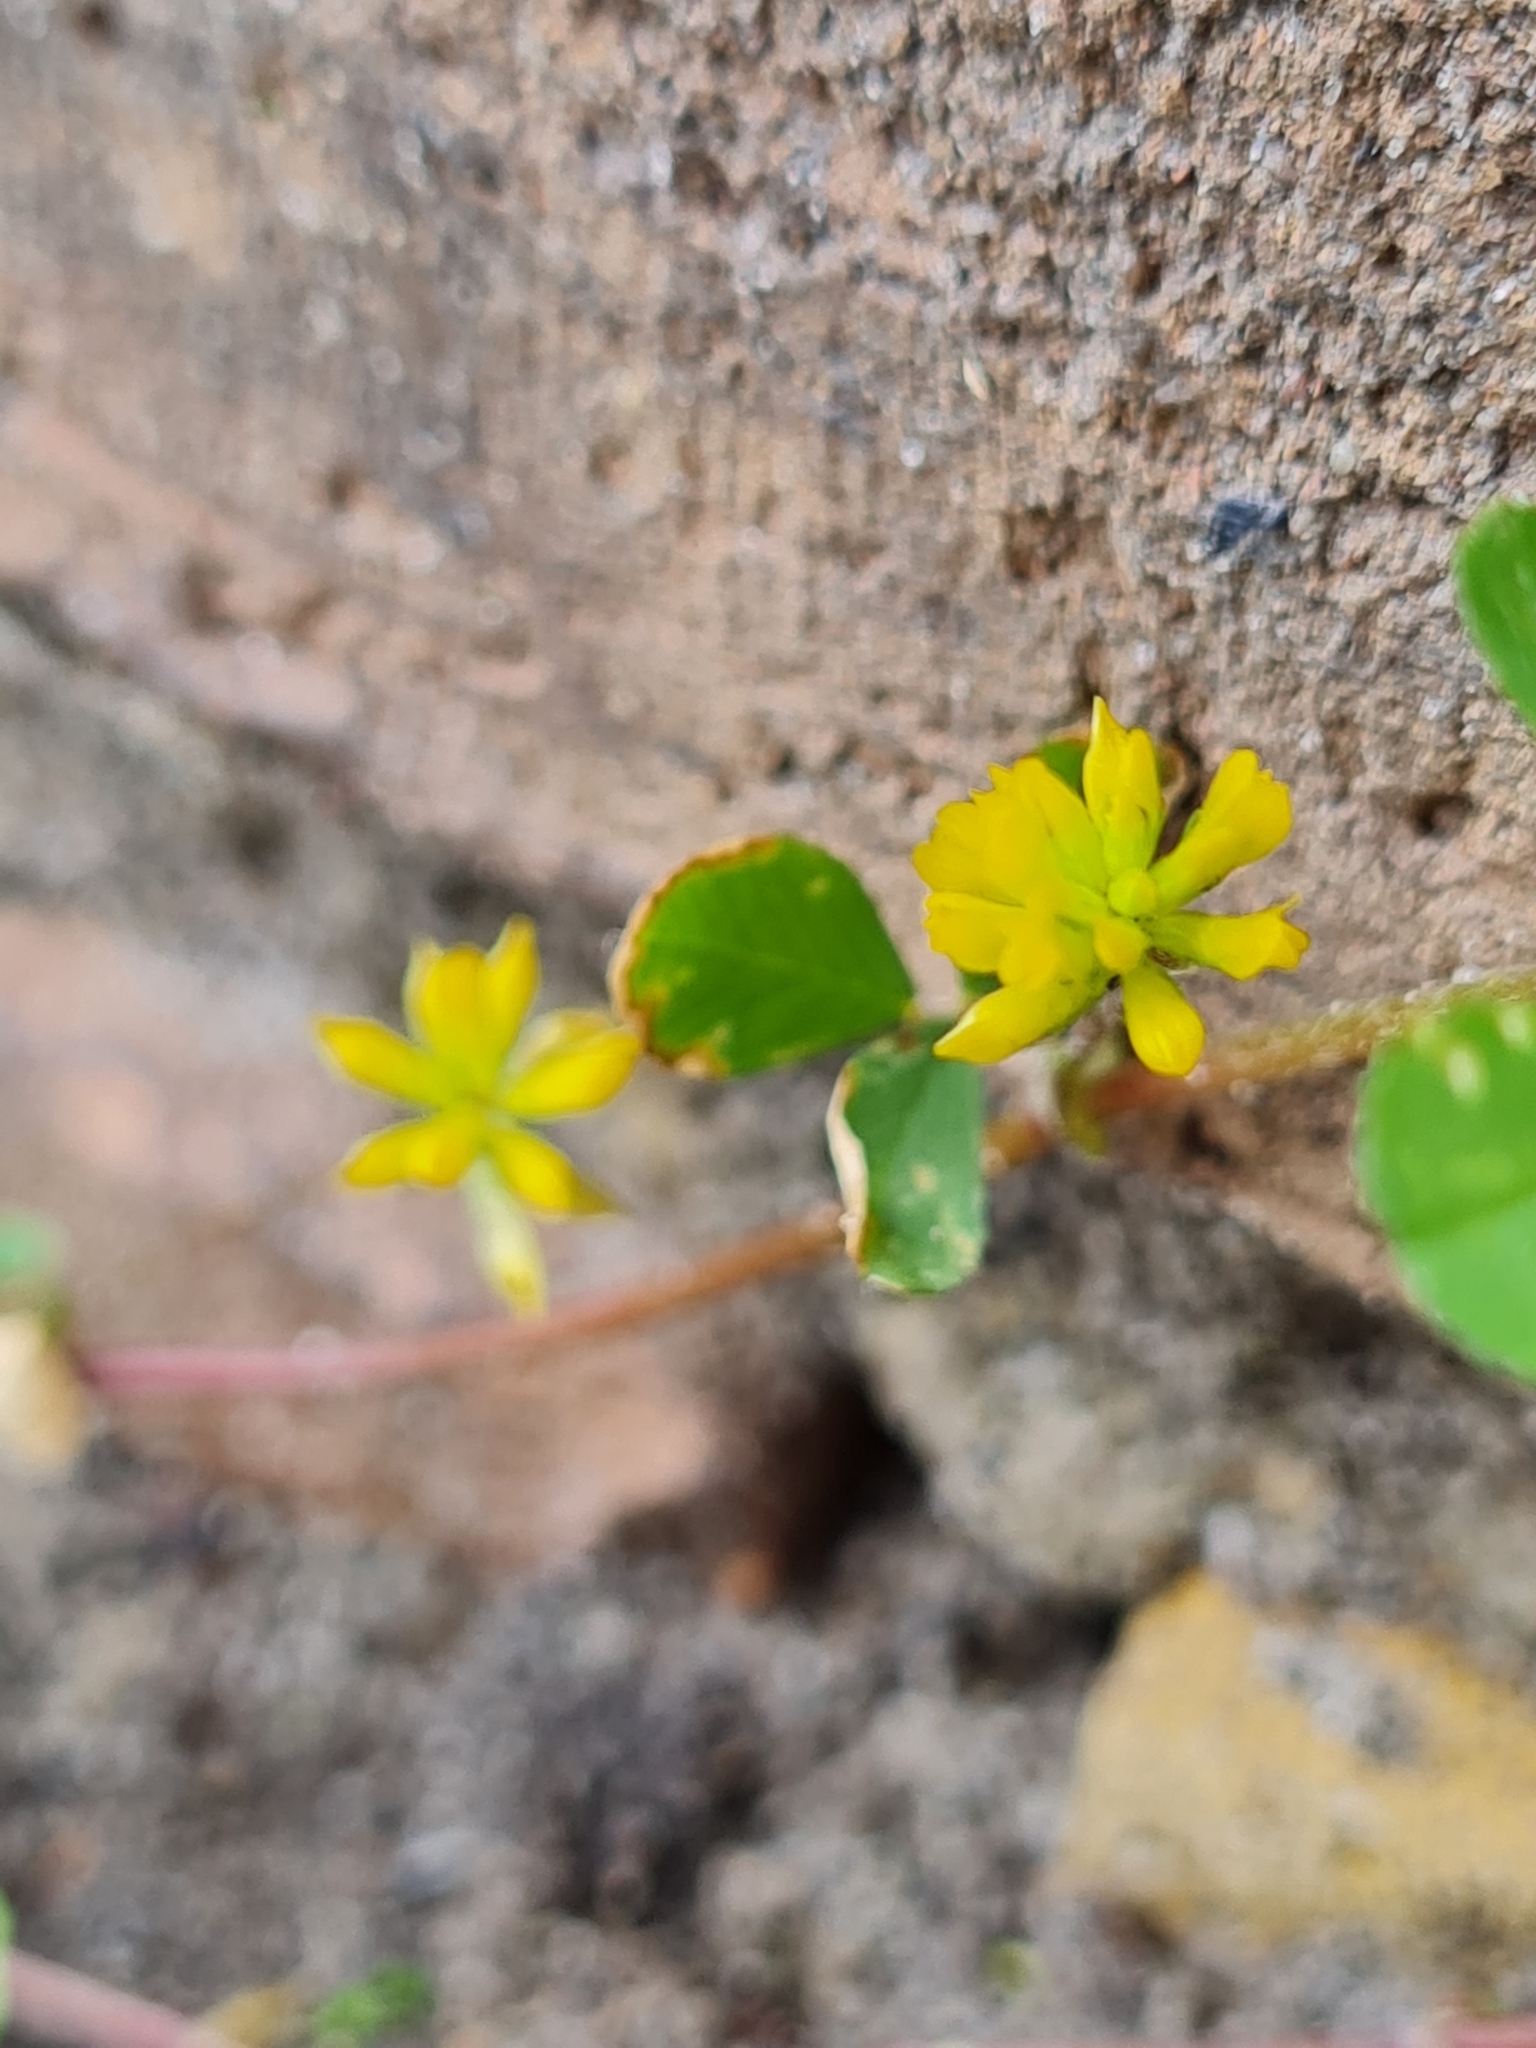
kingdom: Plantae
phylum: Tracheophyta
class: Magnoliopsida
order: Fabales
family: Fabaceae
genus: Trifolium
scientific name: Trifolium dubium
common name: Suckling clover
